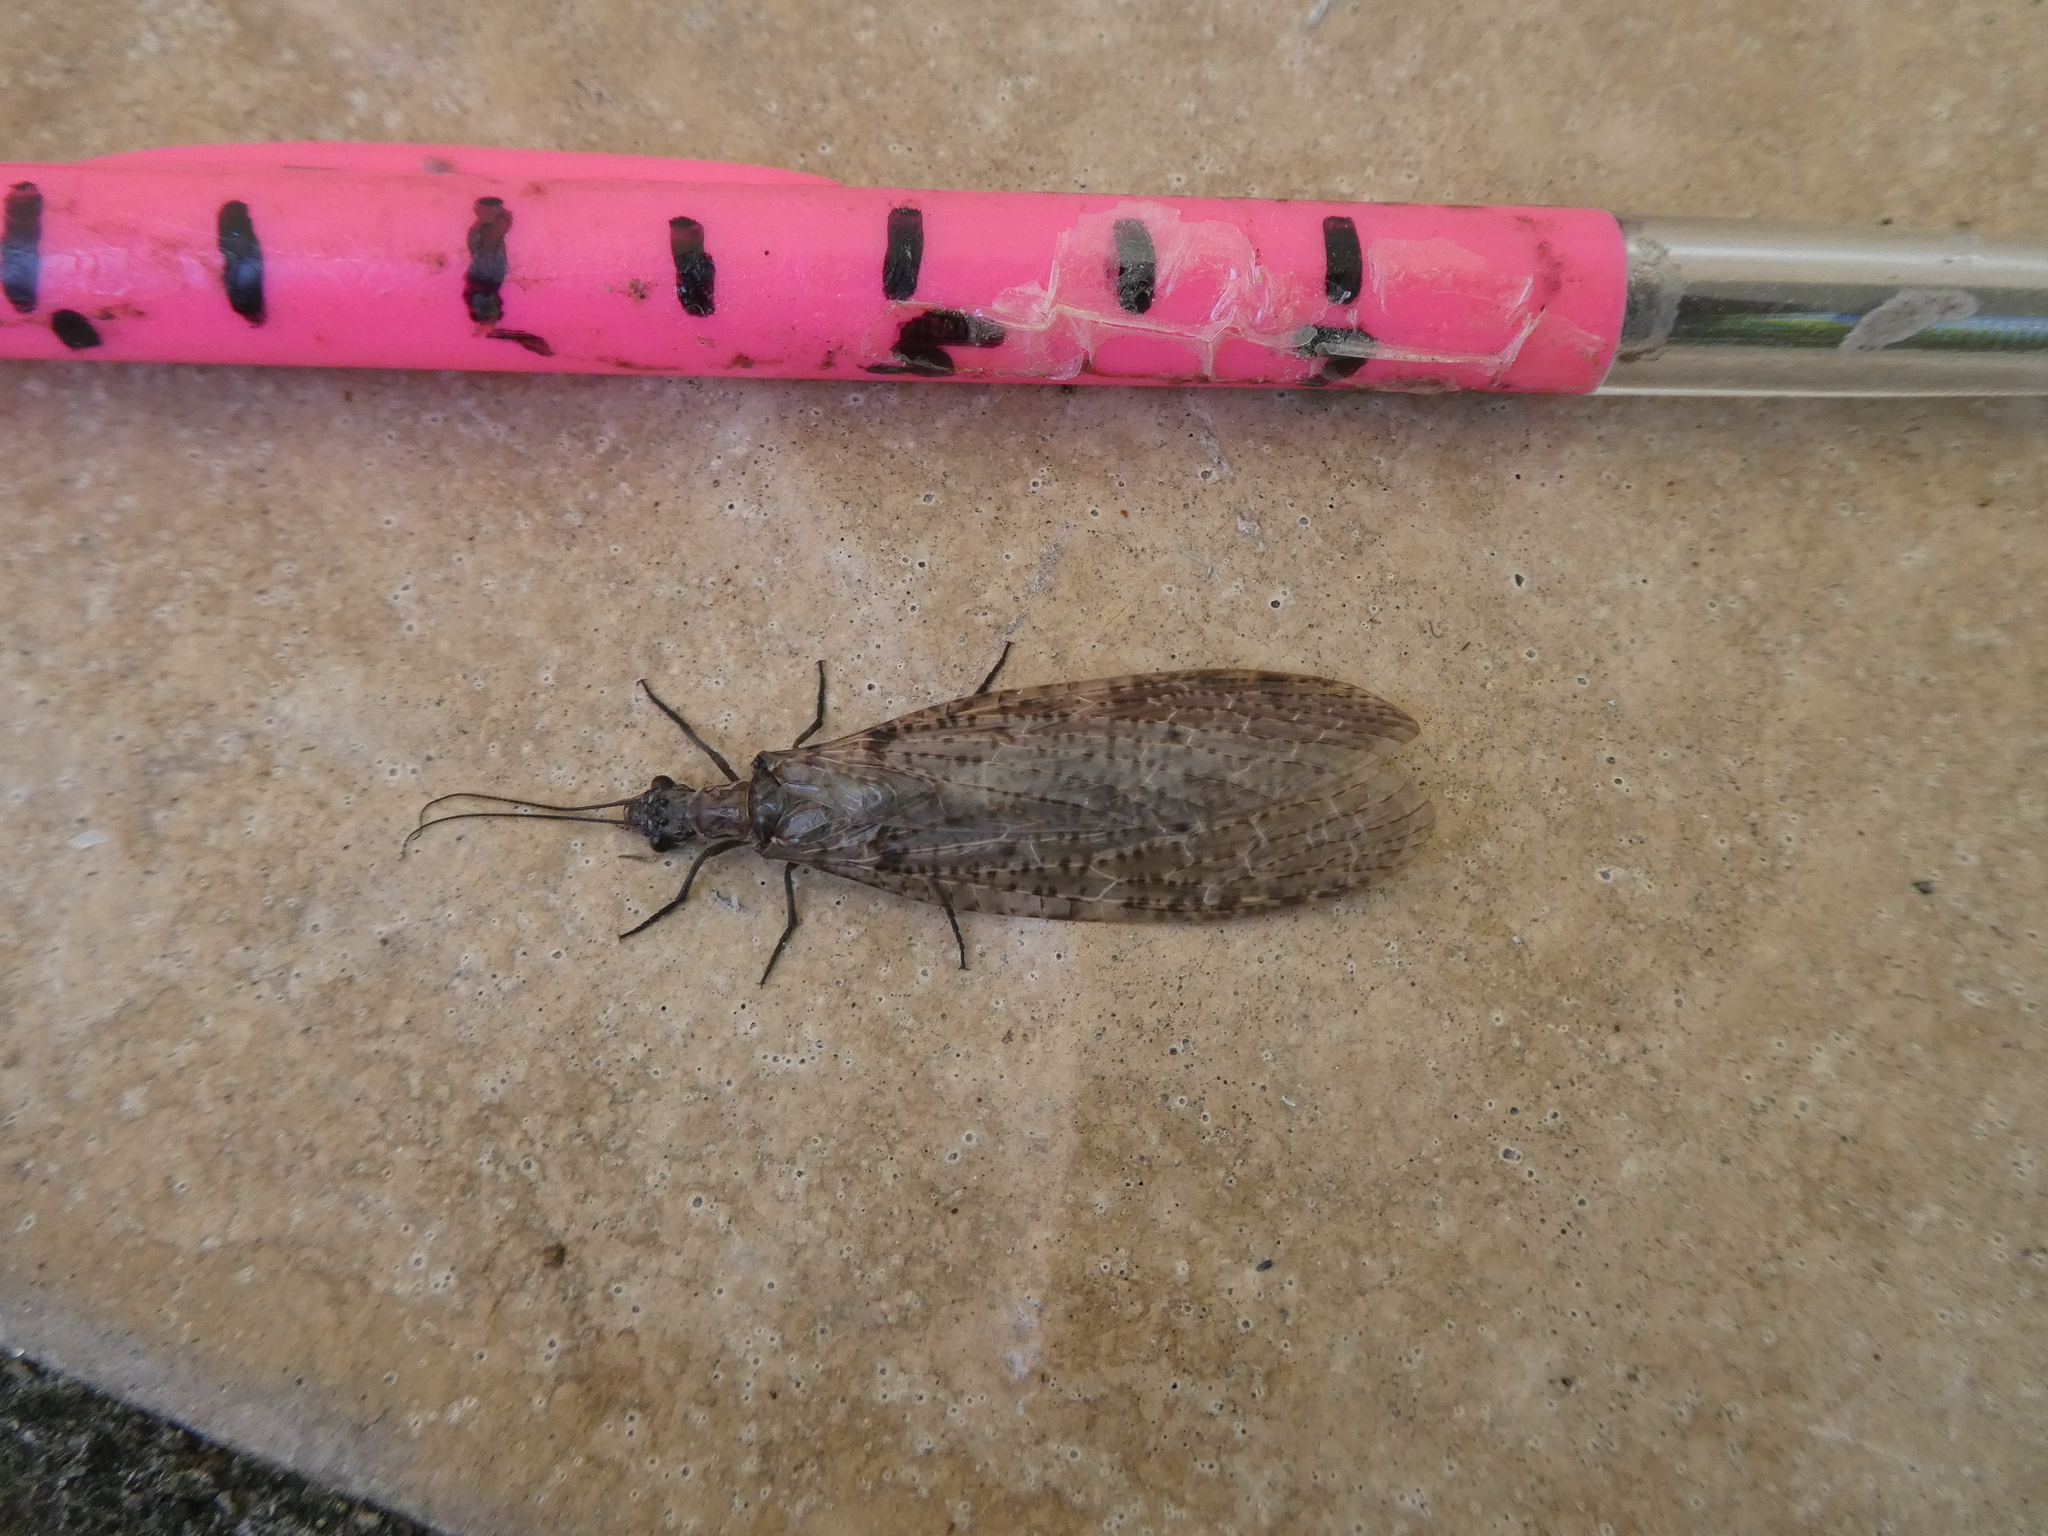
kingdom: Animalia
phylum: Arthropoda
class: Insecta
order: Megaloptera
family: Corydalidae
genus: Archichauliodes
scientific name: Archichauliodes diversus
